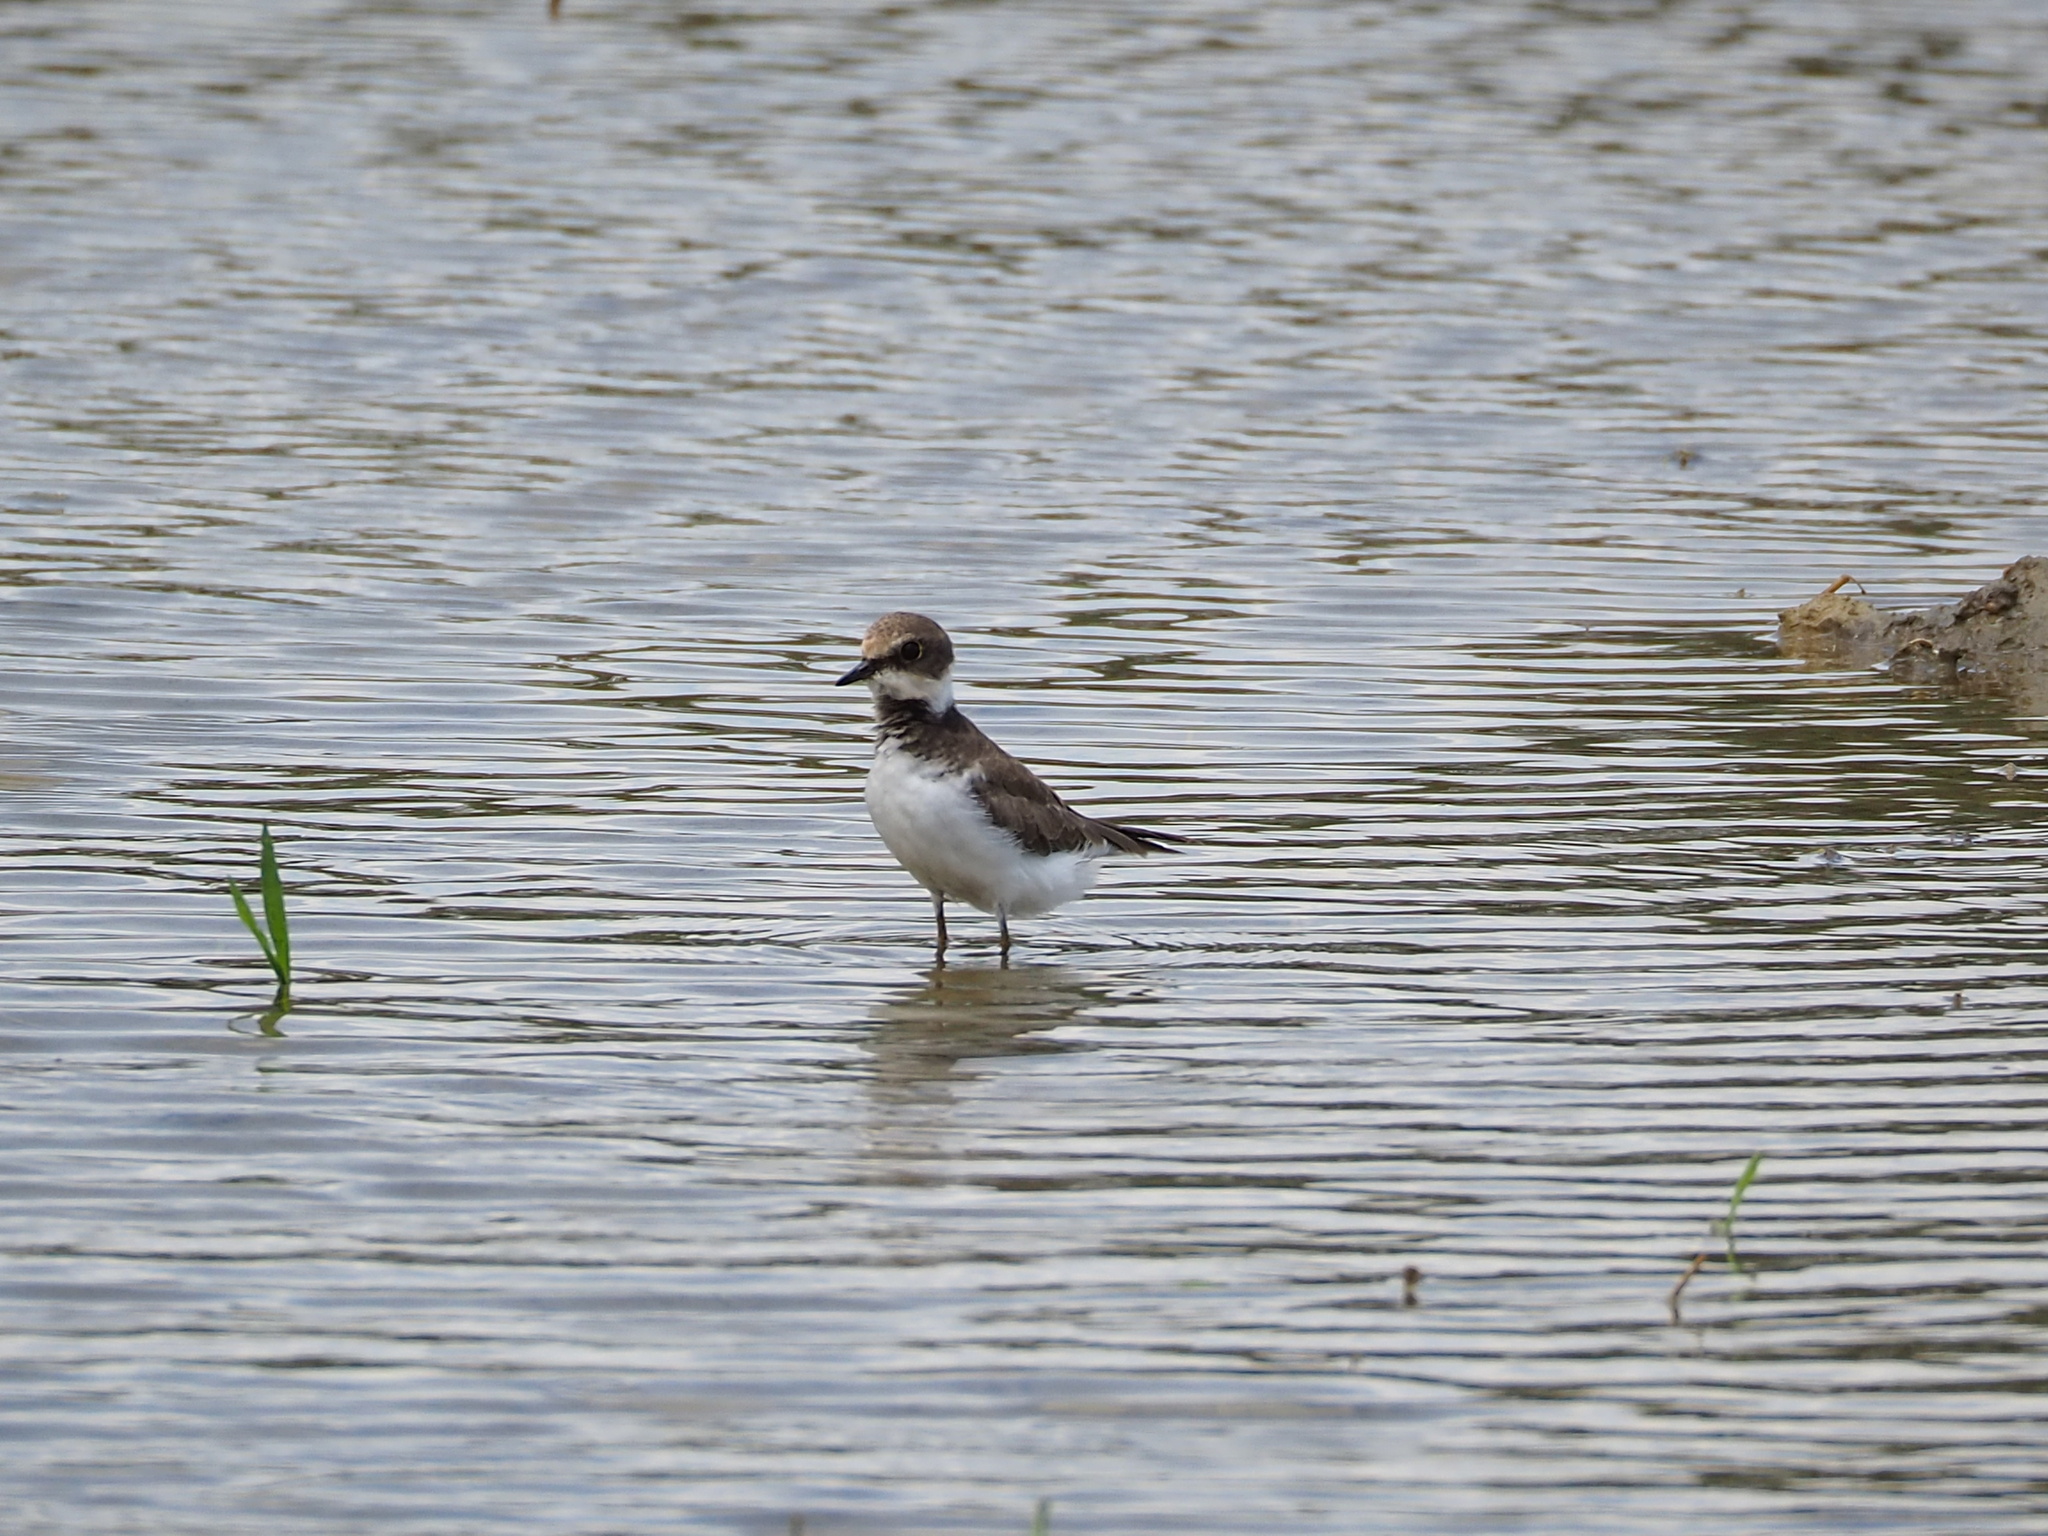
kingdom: Animalia
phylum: Chordata
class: Aves
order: Charadriiformes
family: Charadriidae
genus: Charadrius
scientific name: Charadrius dubius
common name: Little ringed plover
